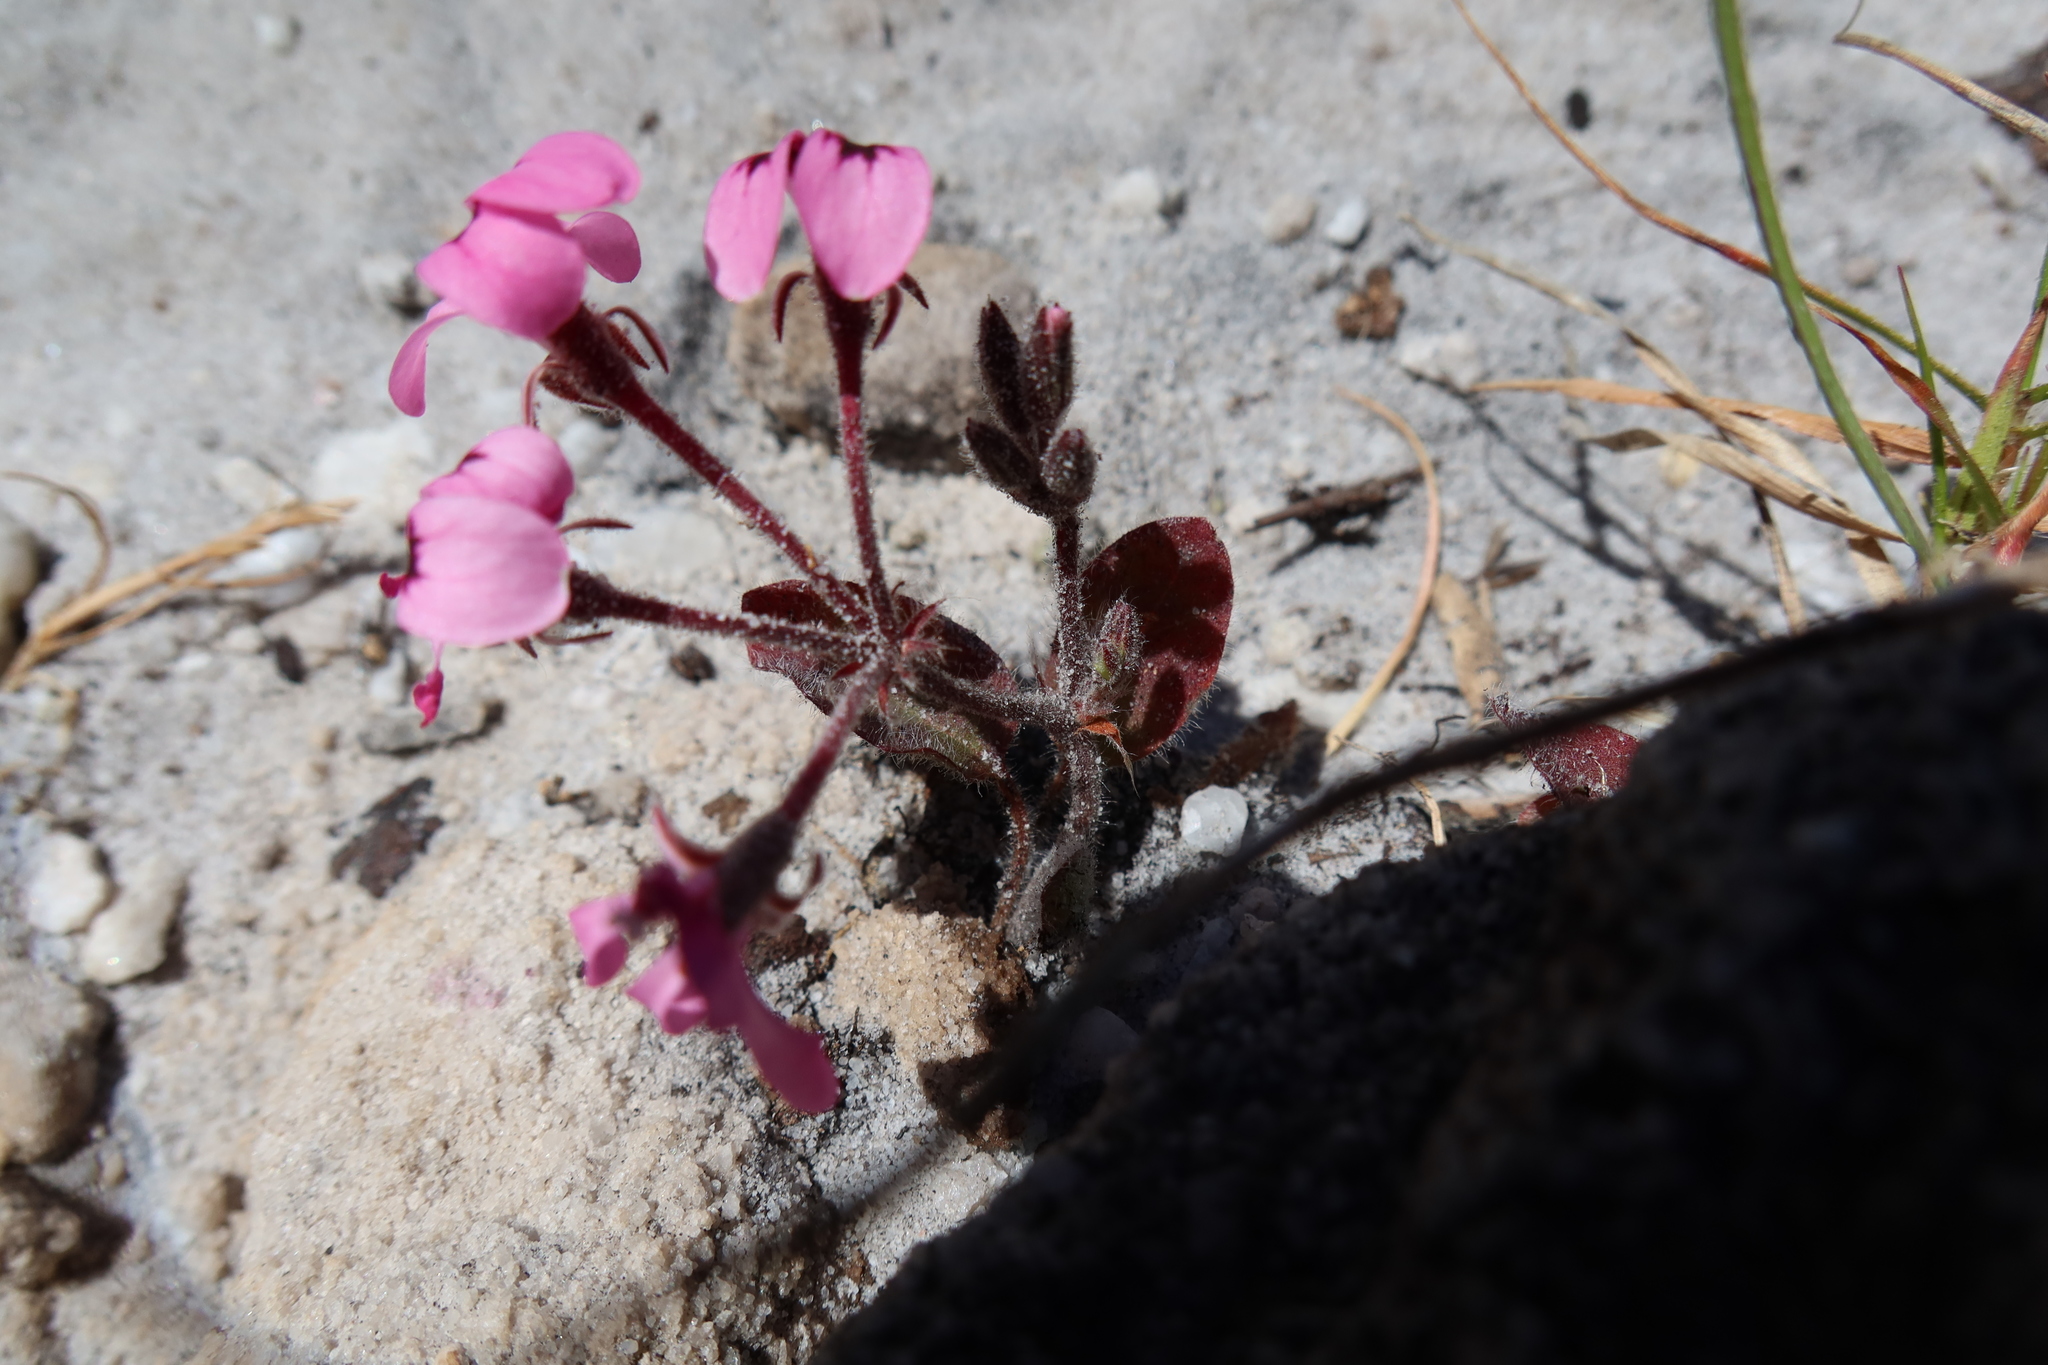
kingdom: Plantae
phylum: Tracheophyta
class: Magnoliopsida
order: Geraniales
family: Geraniaceae
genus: Pelargonium
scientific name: Pelargonium psammophilum
